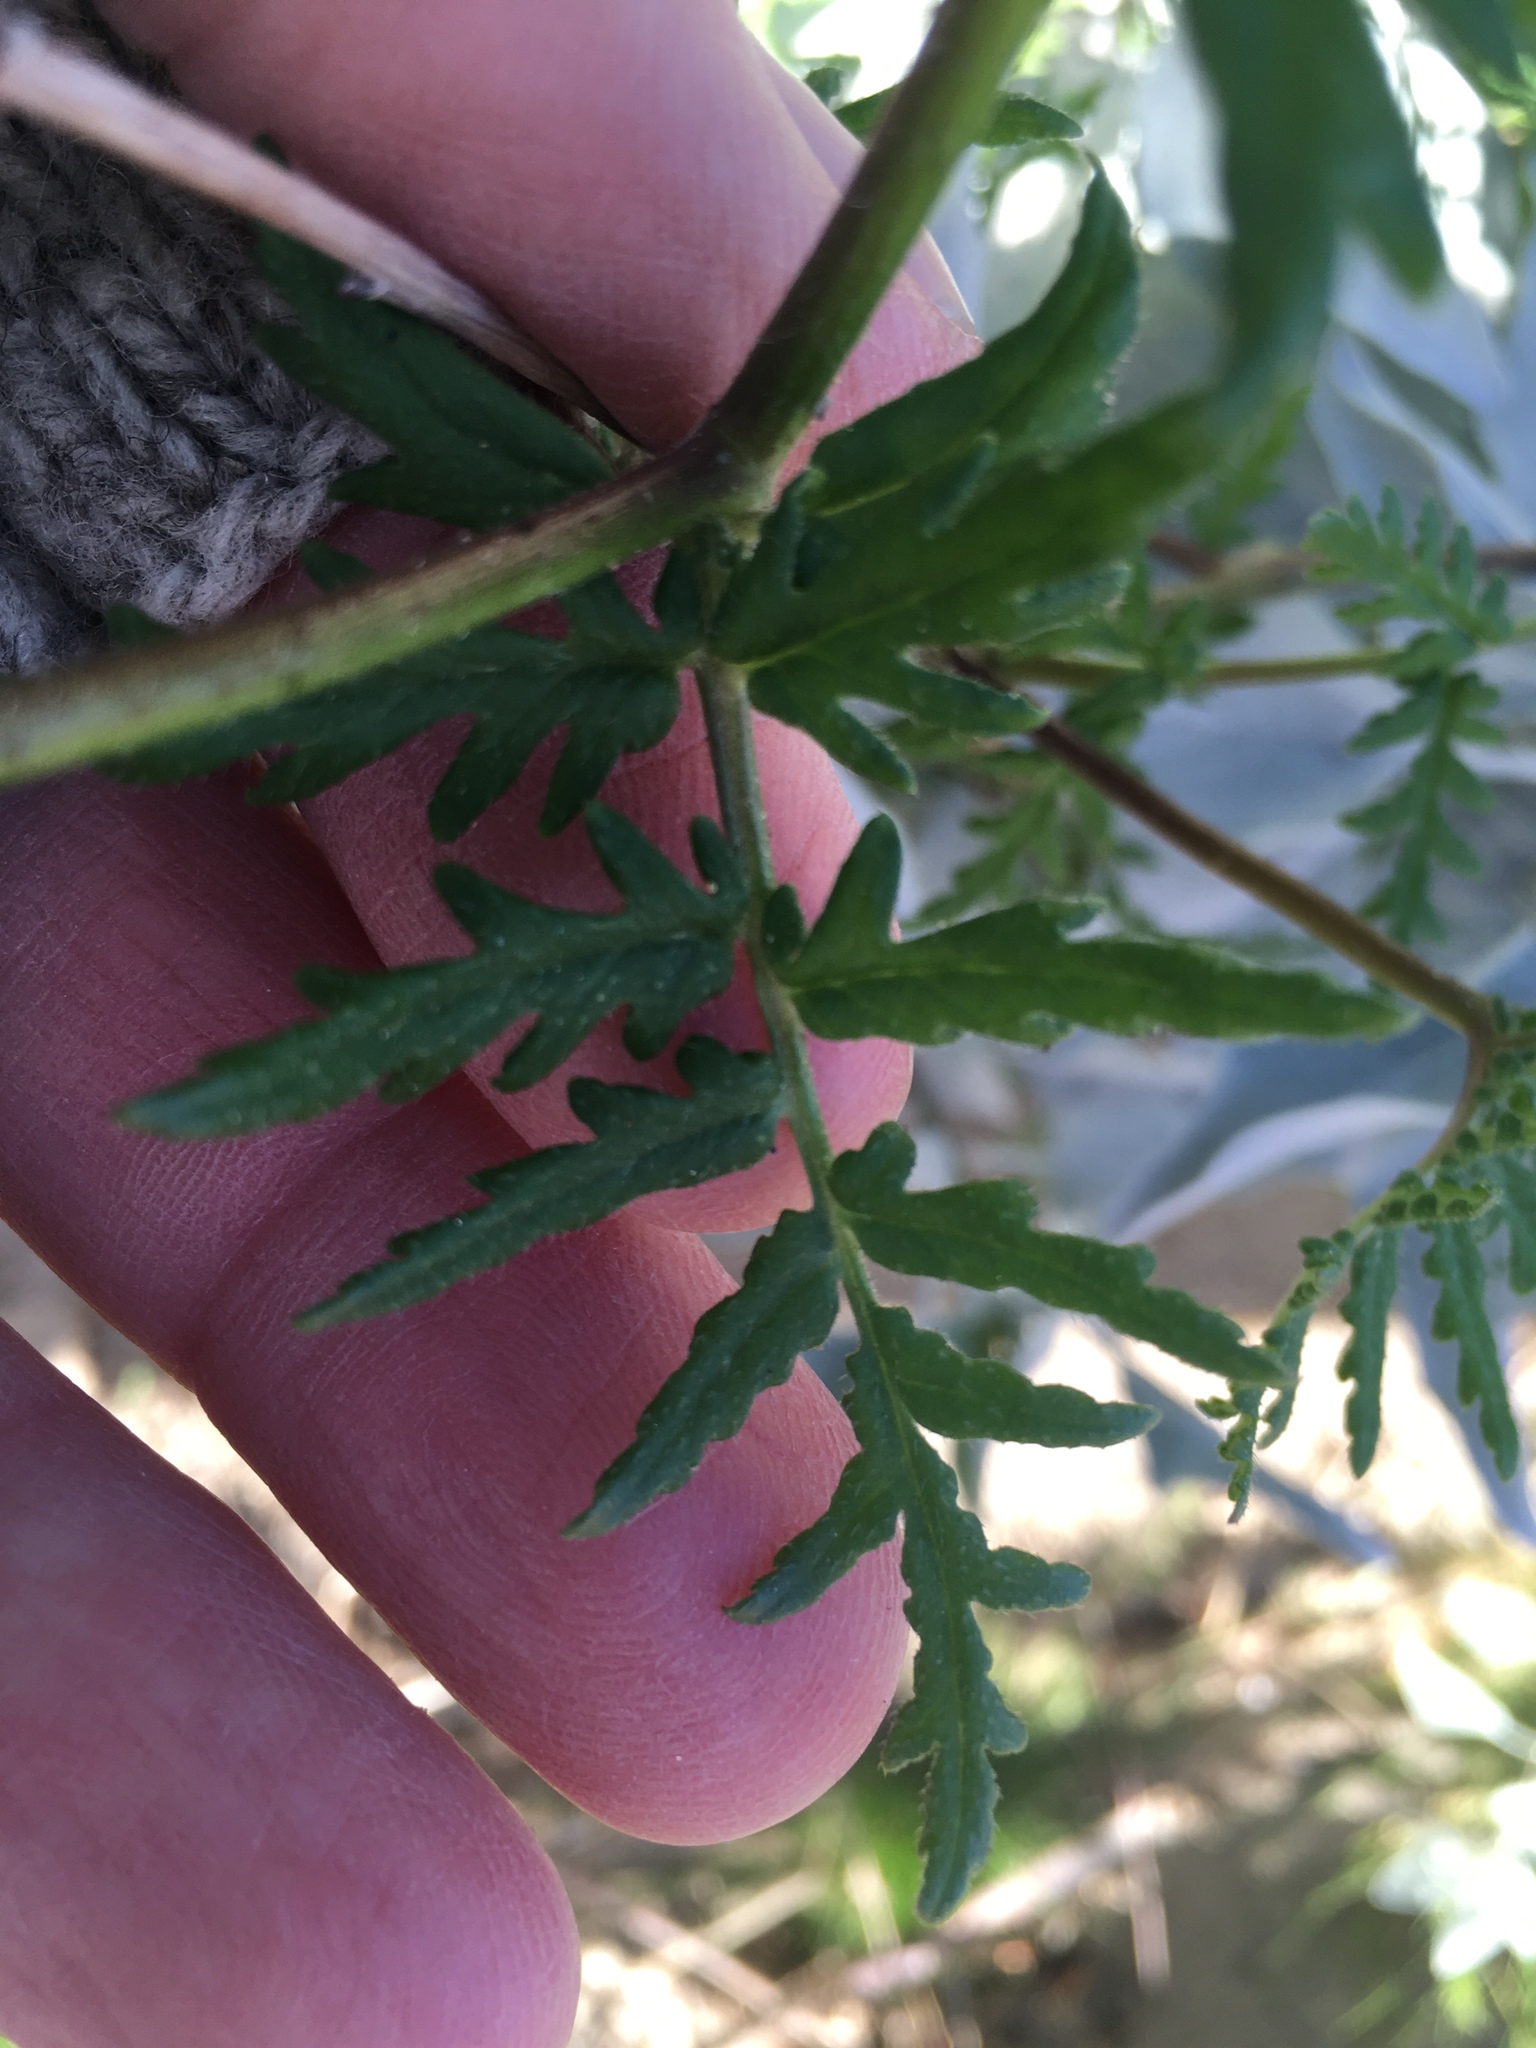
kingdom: Plantae
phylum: Tracheophyta
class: Magnoliopsida
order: Boraginales
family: Hydrophyllaceae
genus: Phacelia
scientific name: Phacelia distans
